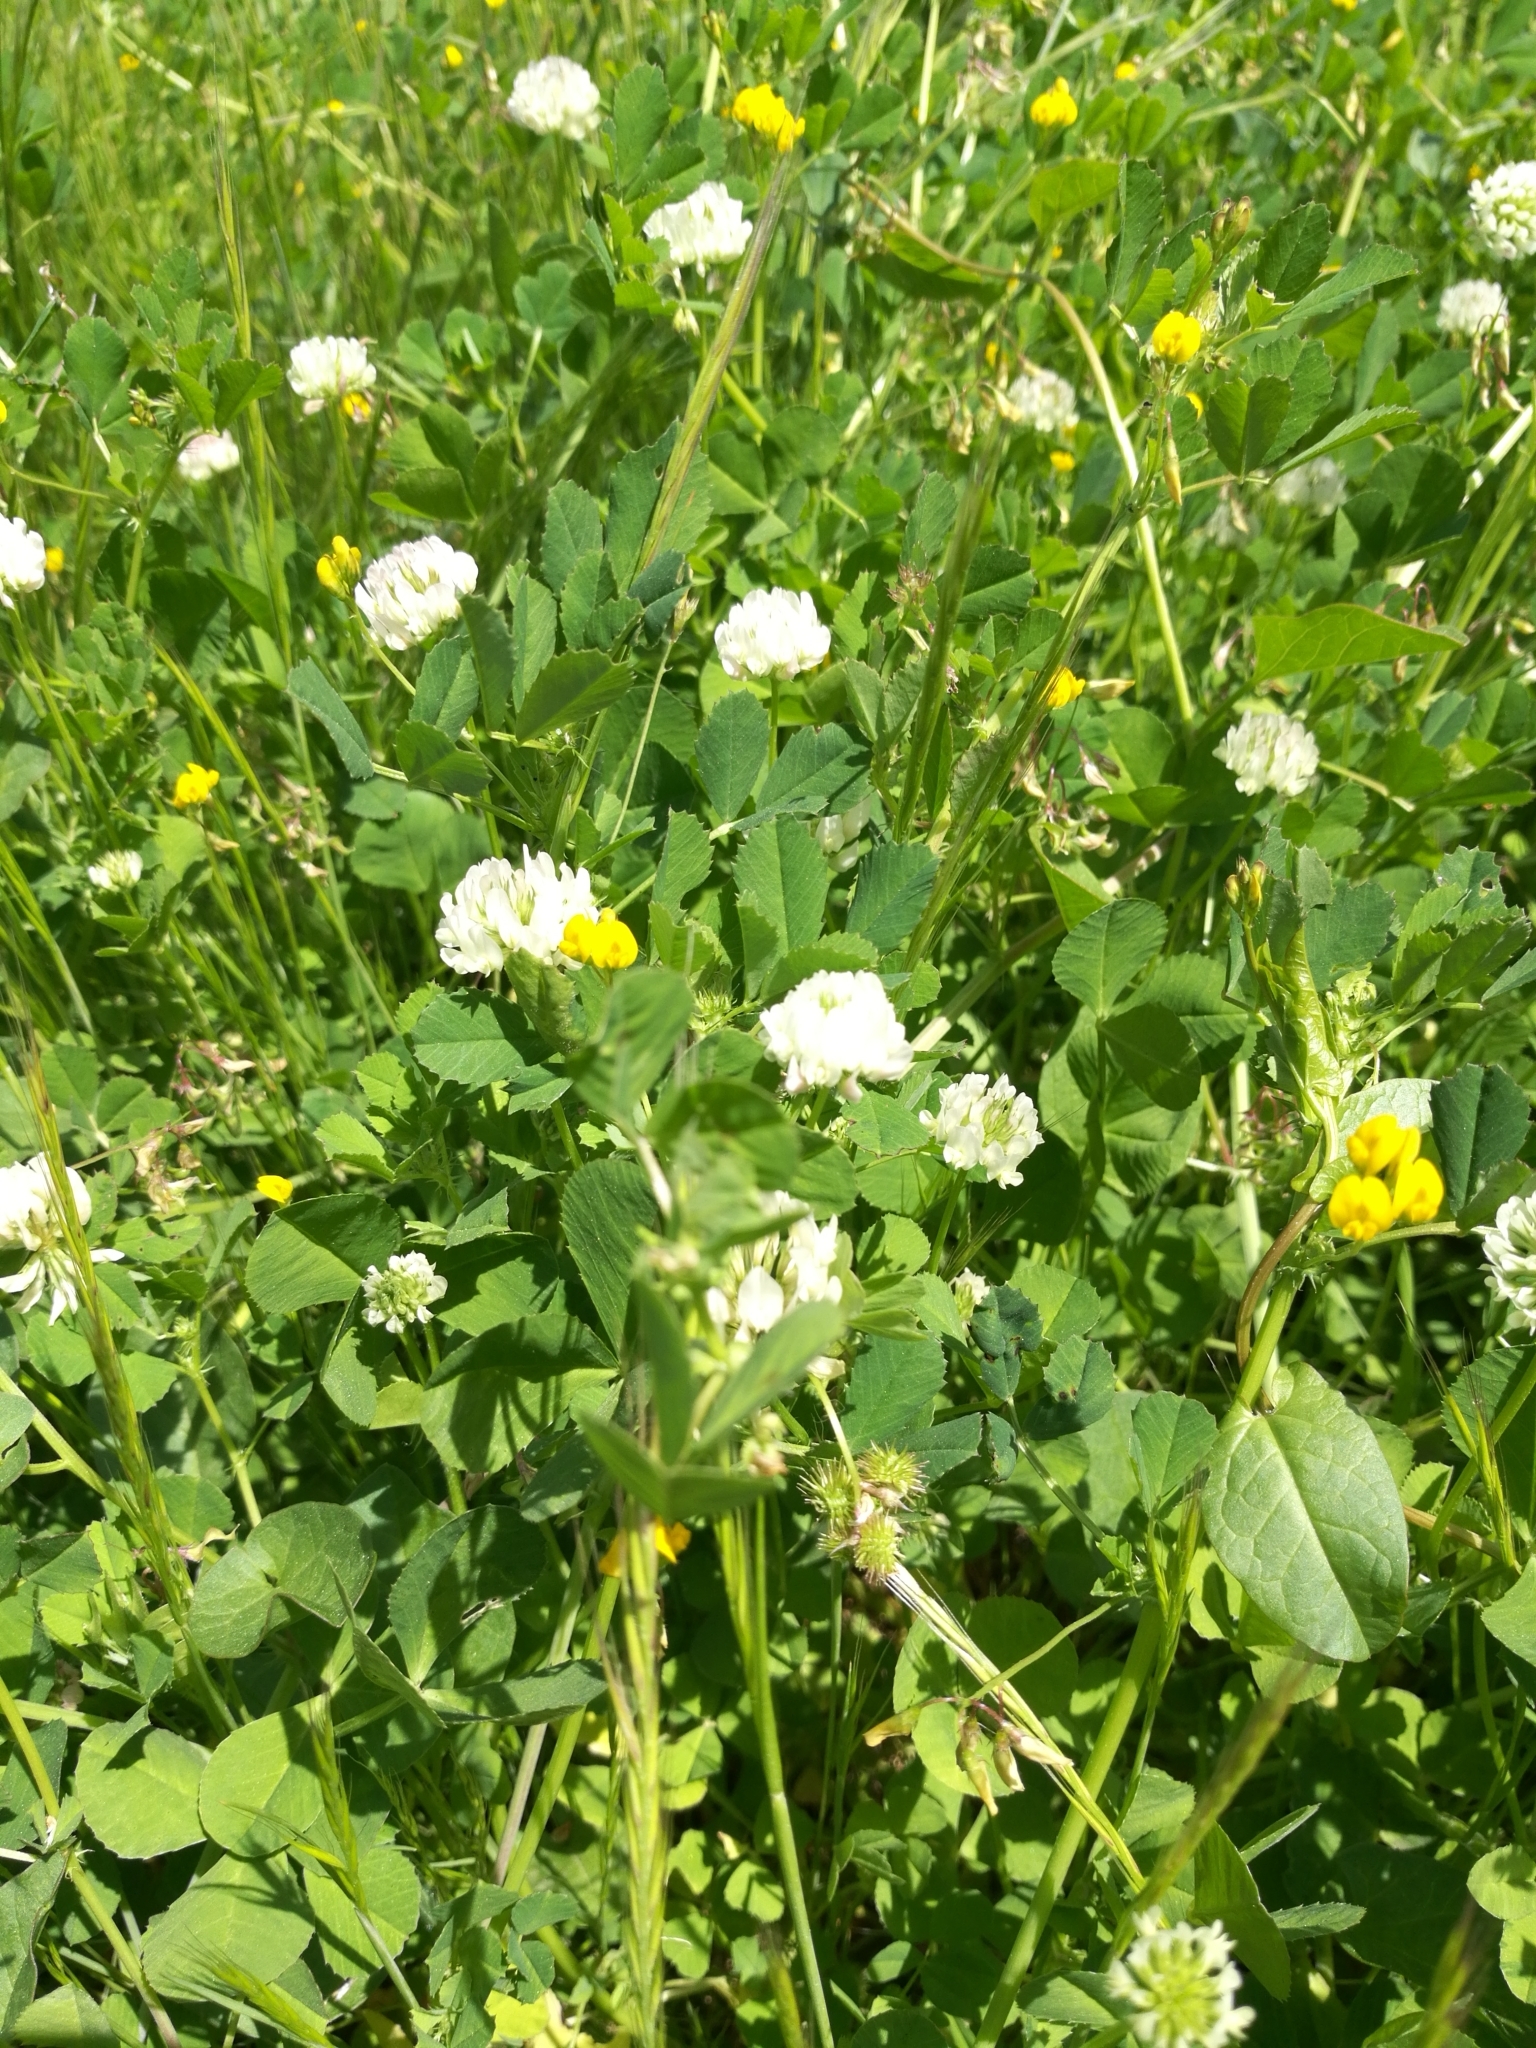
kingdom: Plantae
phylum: Tracheophyta
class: Magnoliopsida
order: Fabales
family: Fabaceae
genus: Trifolium
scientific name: Trifolium repens
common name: White clover
